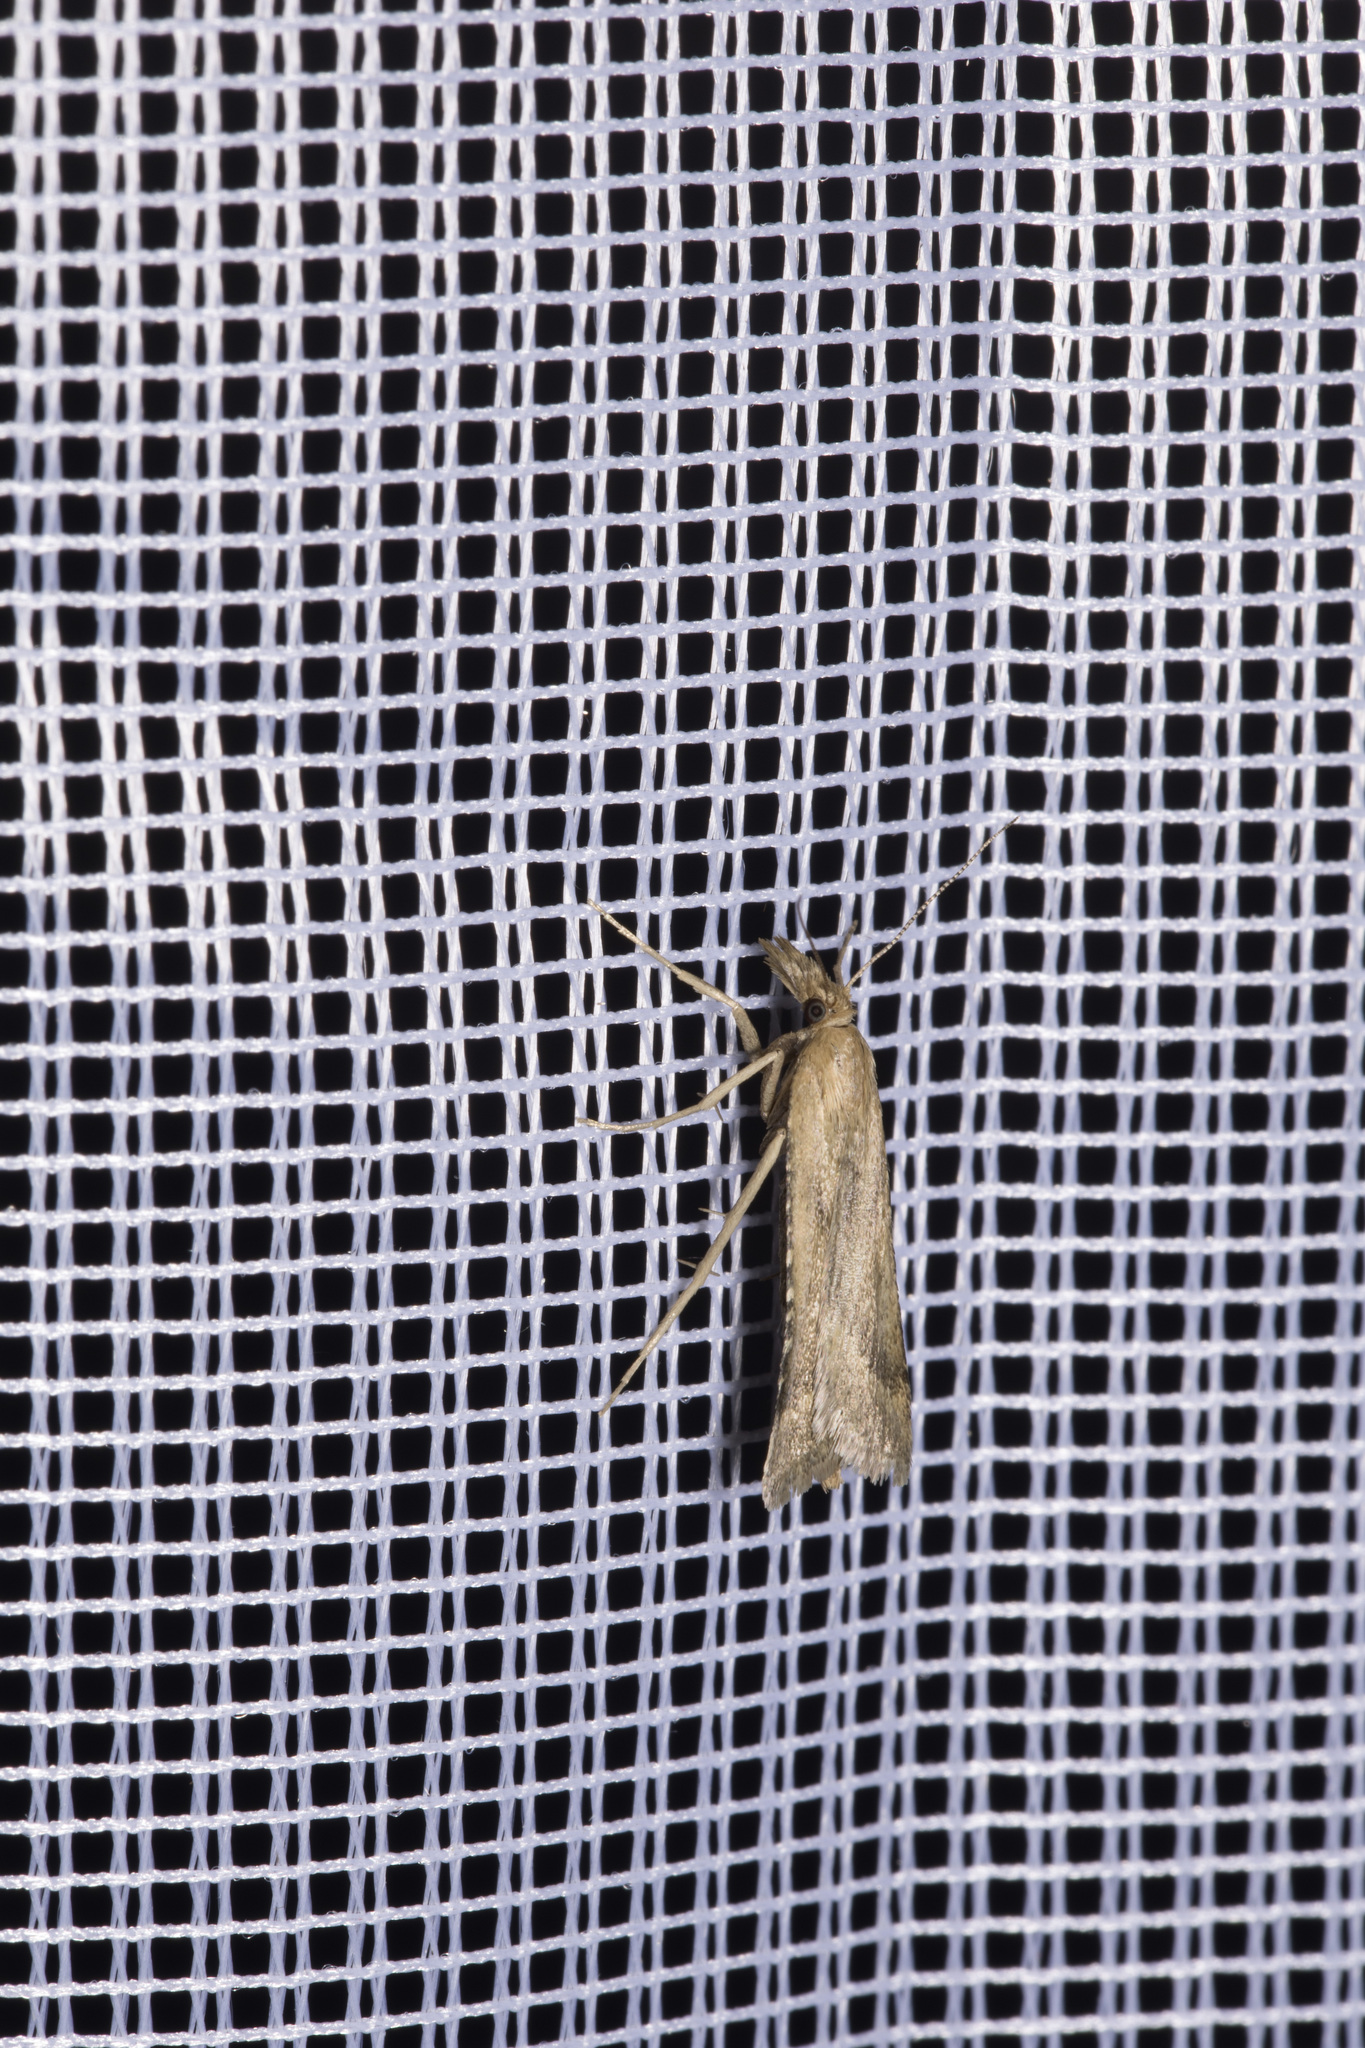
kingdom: Animalia
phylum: Arthropoda
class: Insecta
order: Lepidoptera
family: Pyralidae
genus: Synaphe
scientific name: Synaphe punctalis
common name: Long-legged tabby
